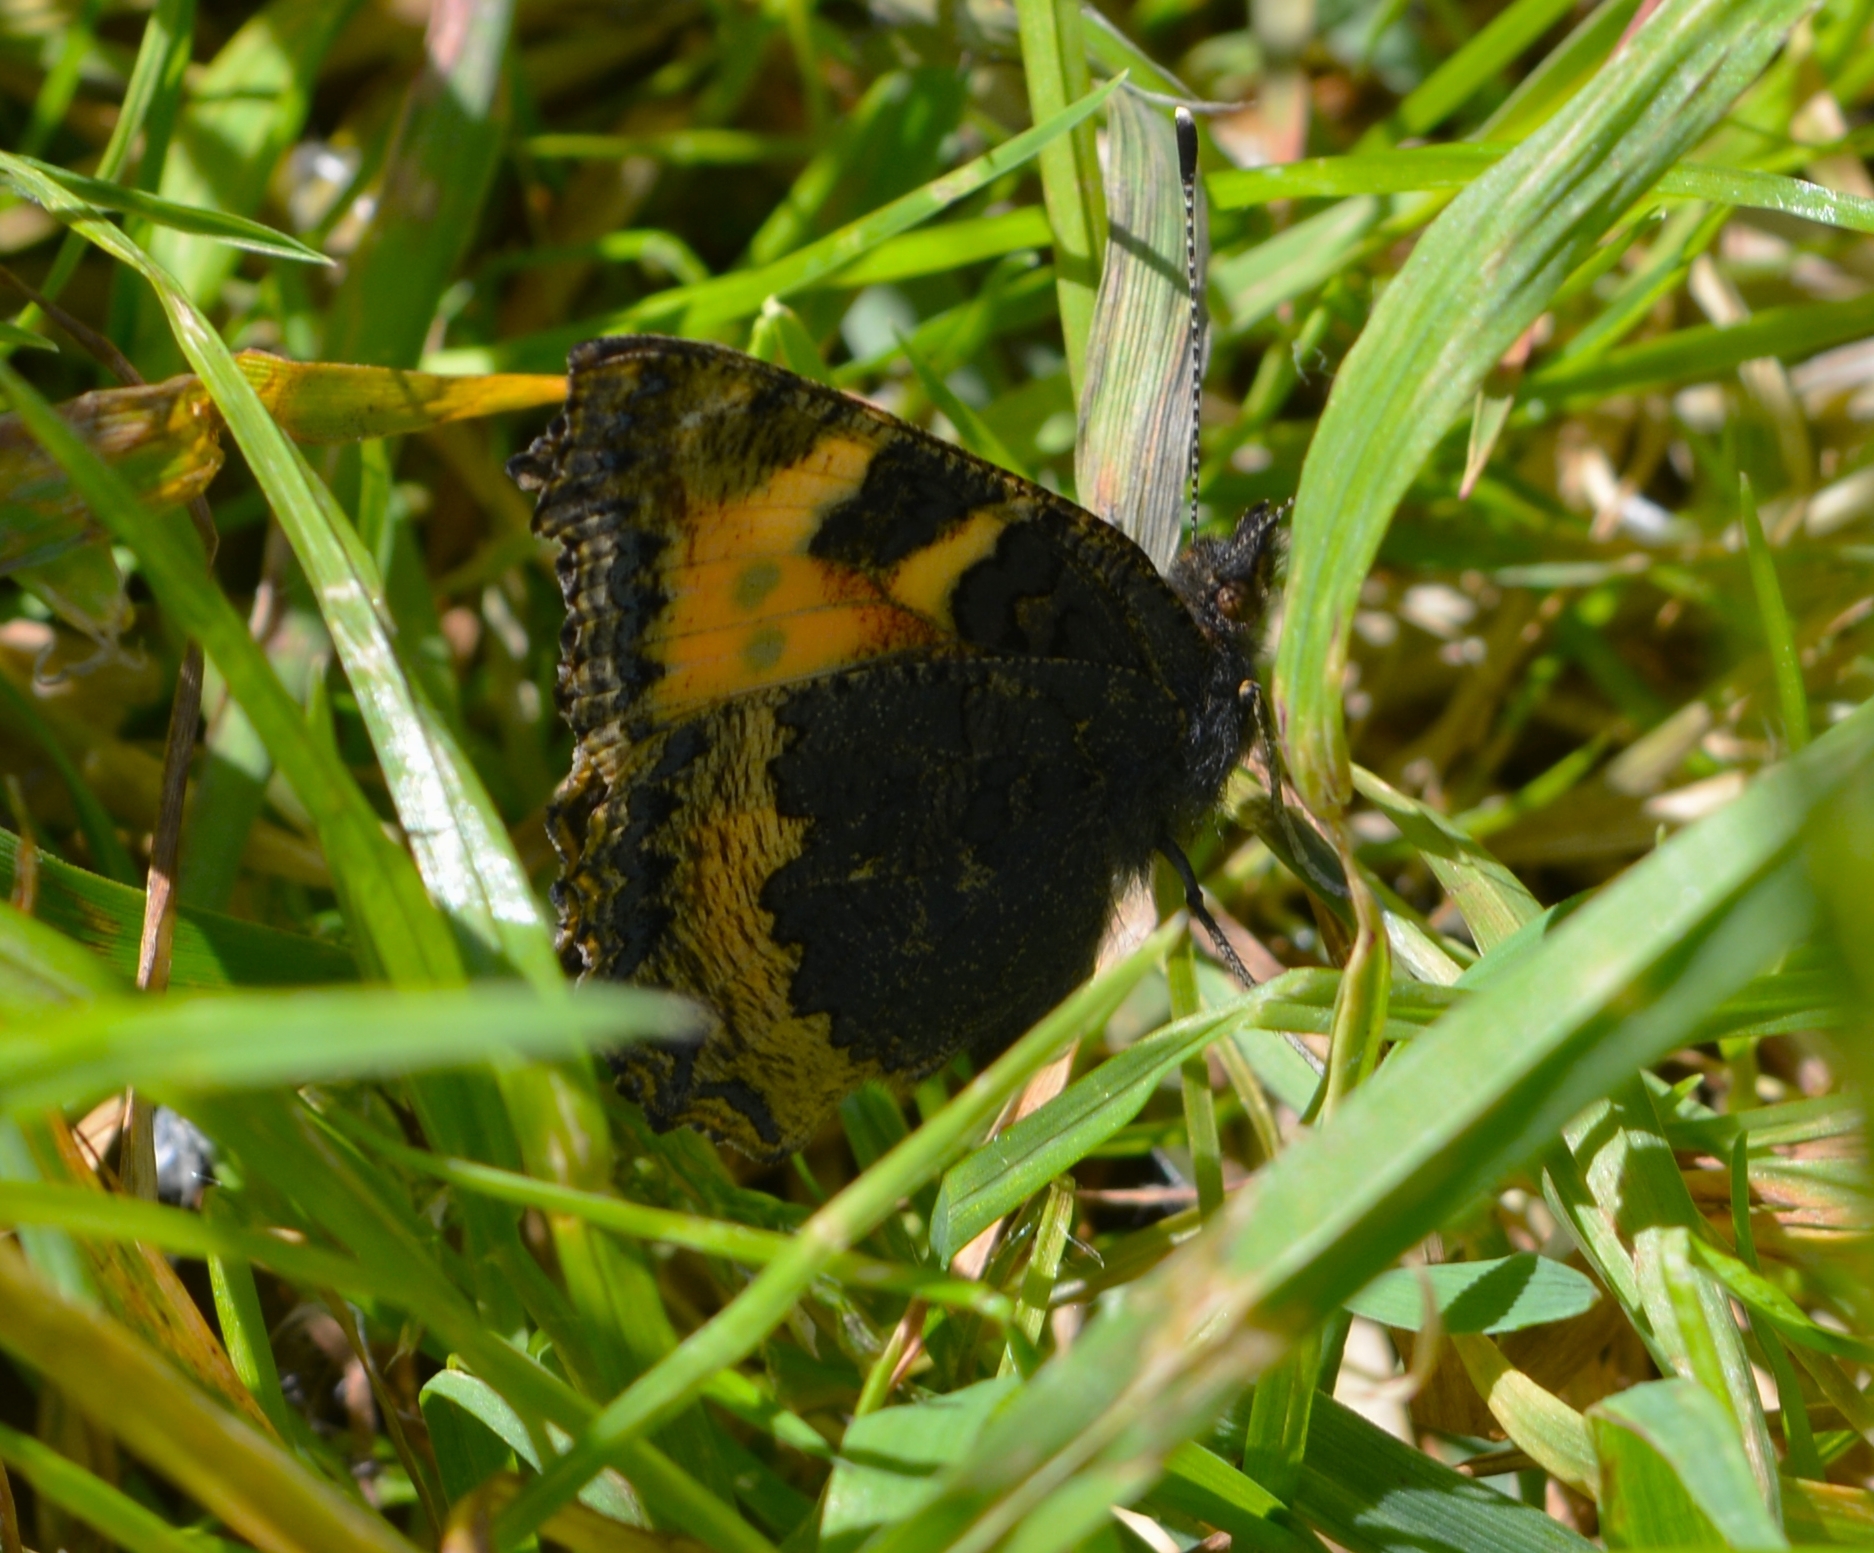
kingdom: Animalia
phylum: Arthropoda
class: Insecta
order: Lepidoptera
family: Nymphalidae
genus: Aglais
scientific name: Aglais urticae
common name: Small tortoiseshell
